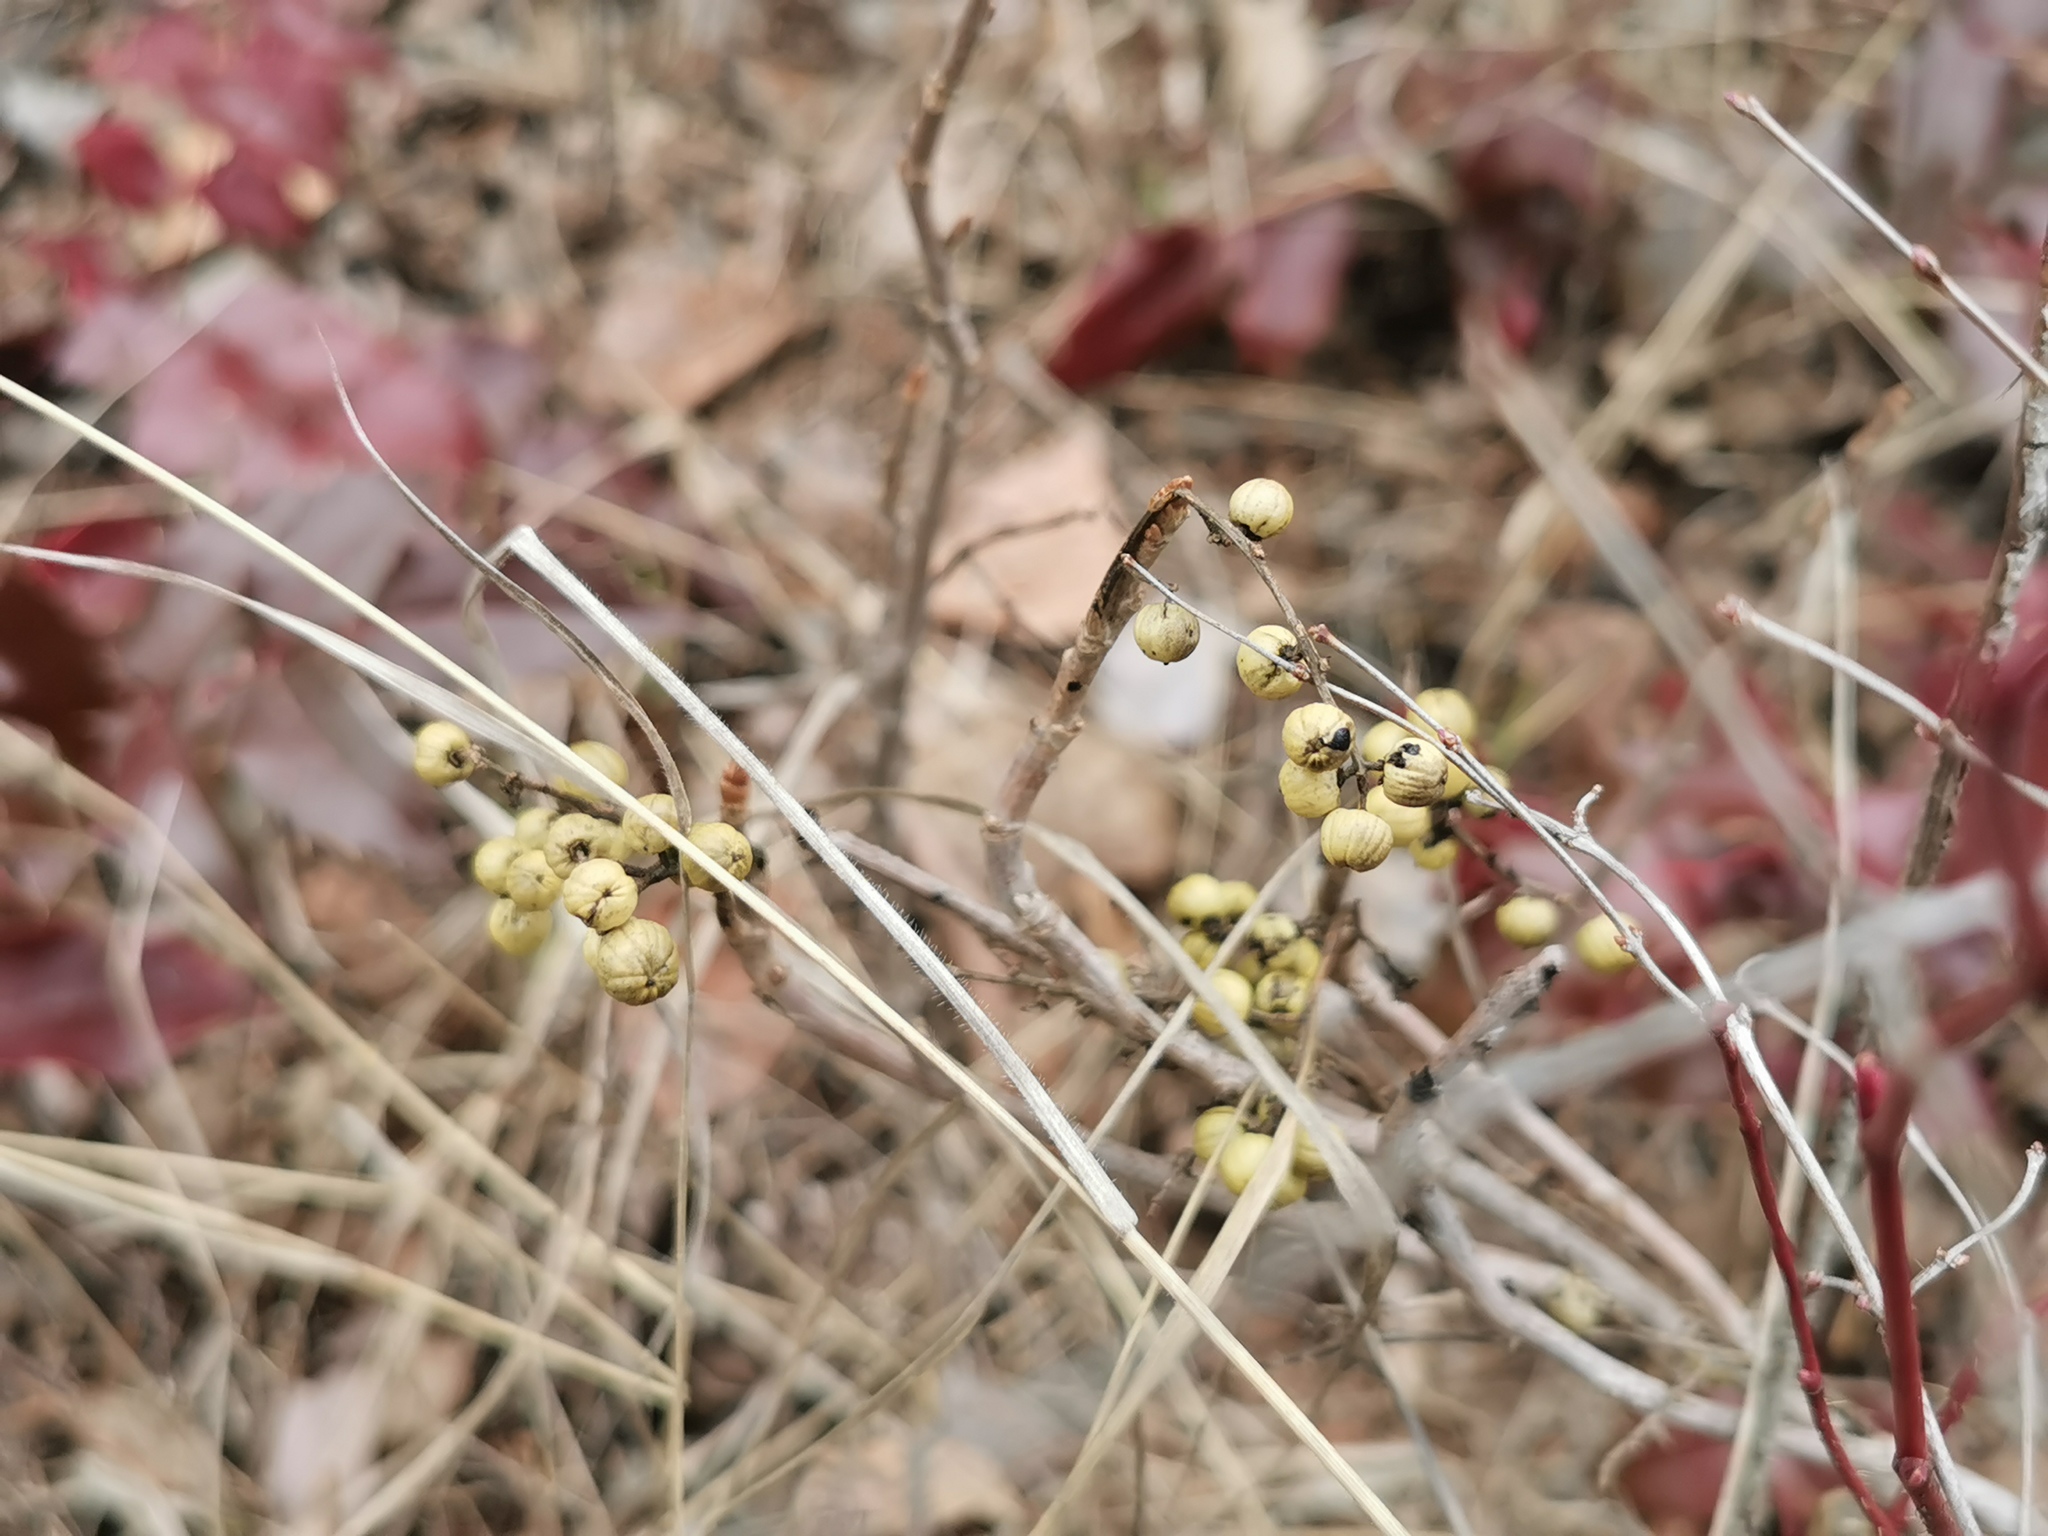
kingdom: Plantae
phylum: Tracheophyta
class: Magnoliopsida
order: Sapindales
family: Anacardiaceae
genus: Toxicodendron
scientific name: Toxicodendron rydbergii
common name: Rydberg's poison-ivy
